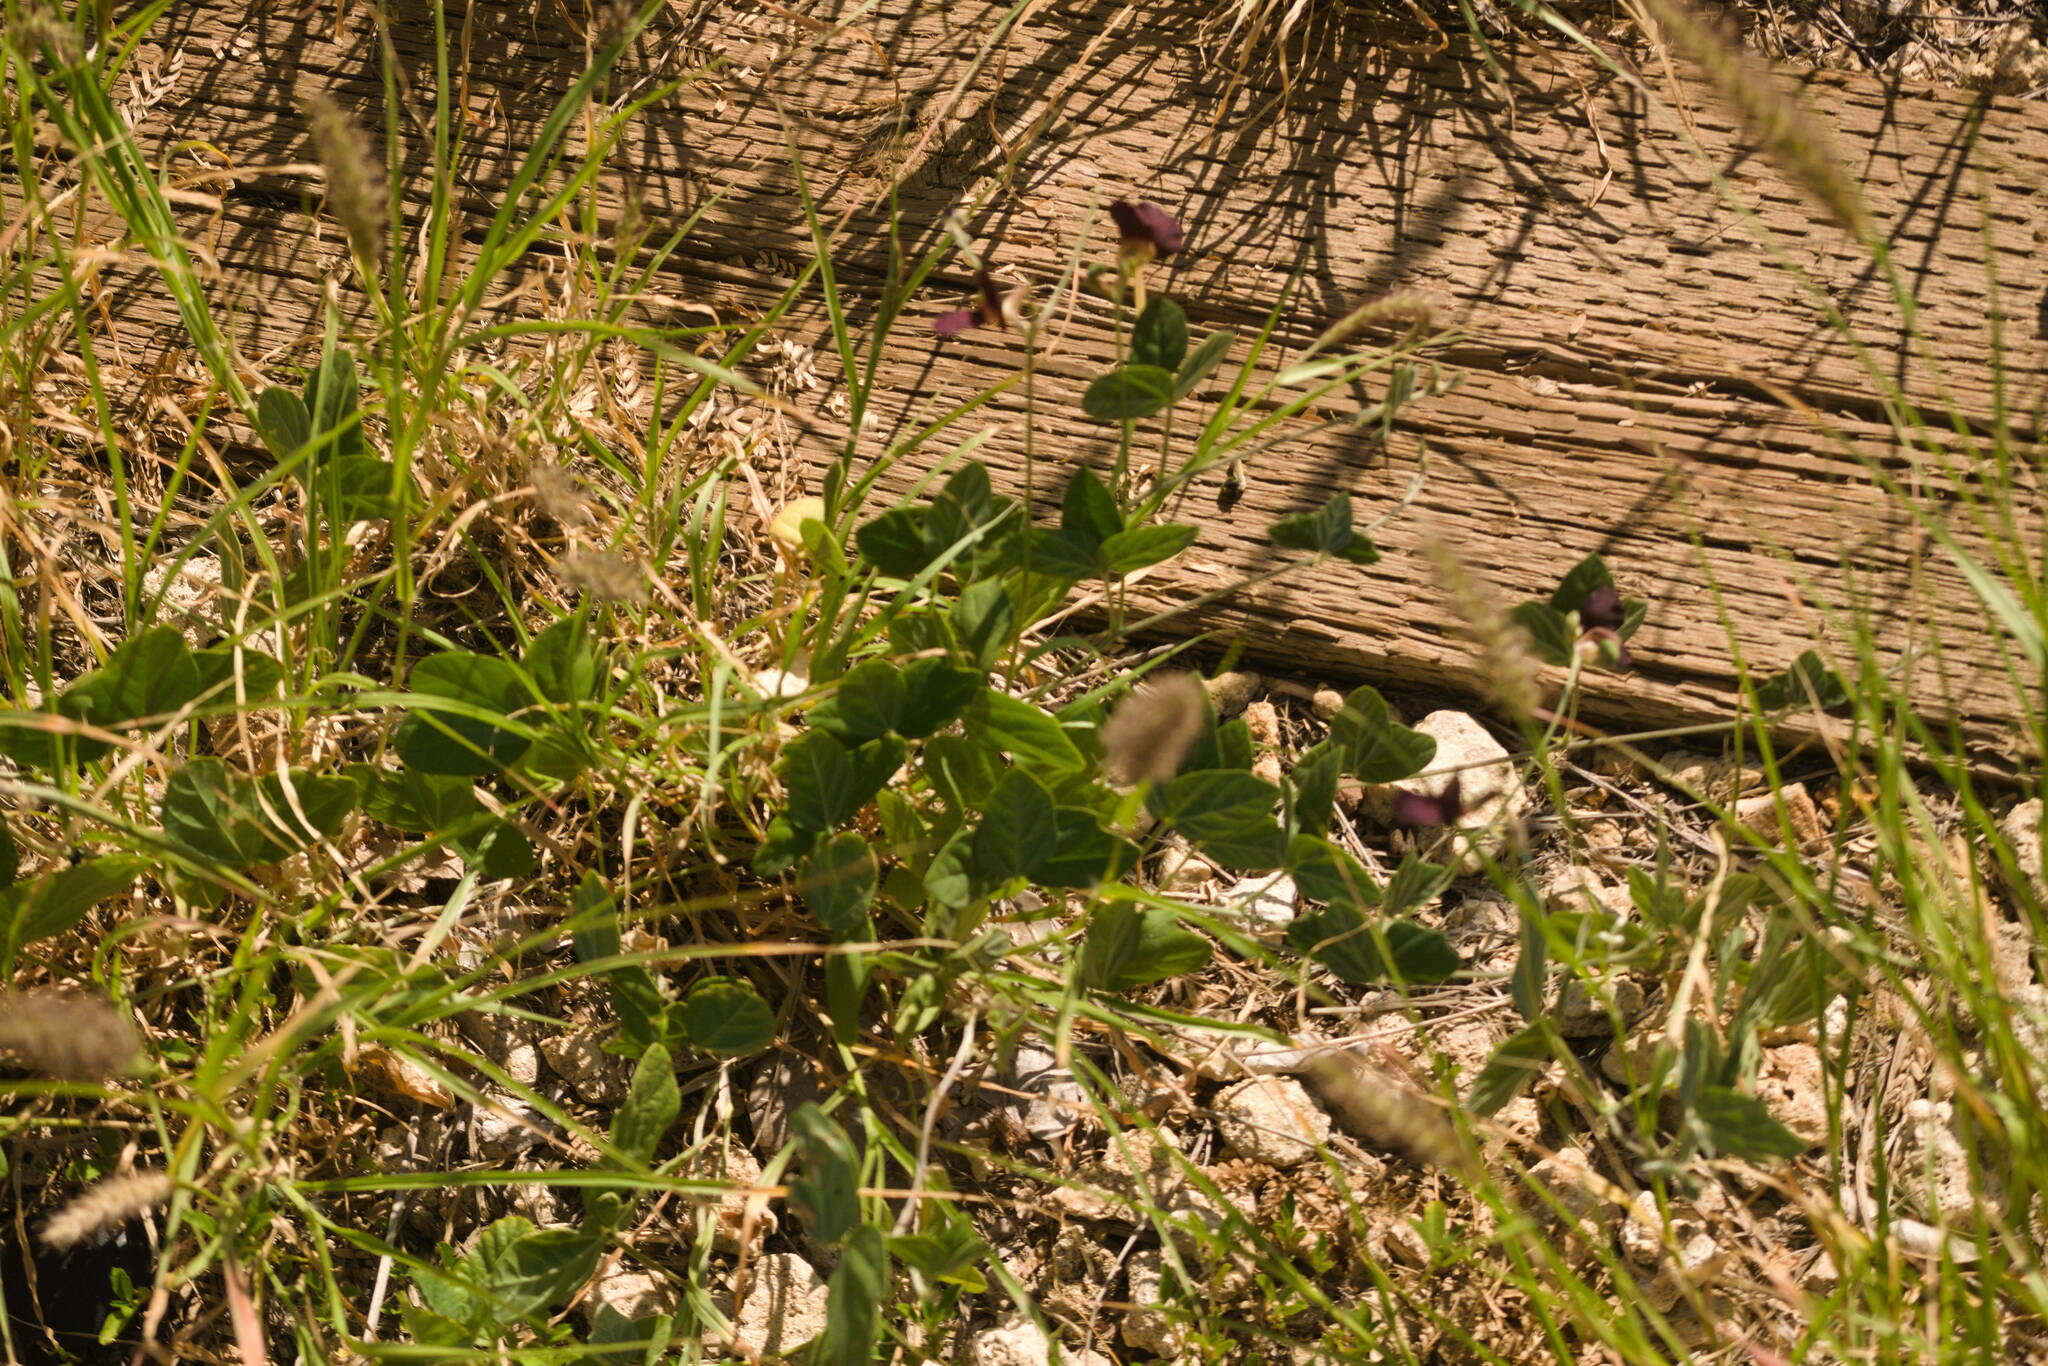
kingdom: Plantae
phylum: Tracheophyta
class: Magnoliopsida
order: Fabales
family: Fabaceae
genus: Macroptilium
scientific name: Macroptilium atropurpureum
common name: Purple bushbean
